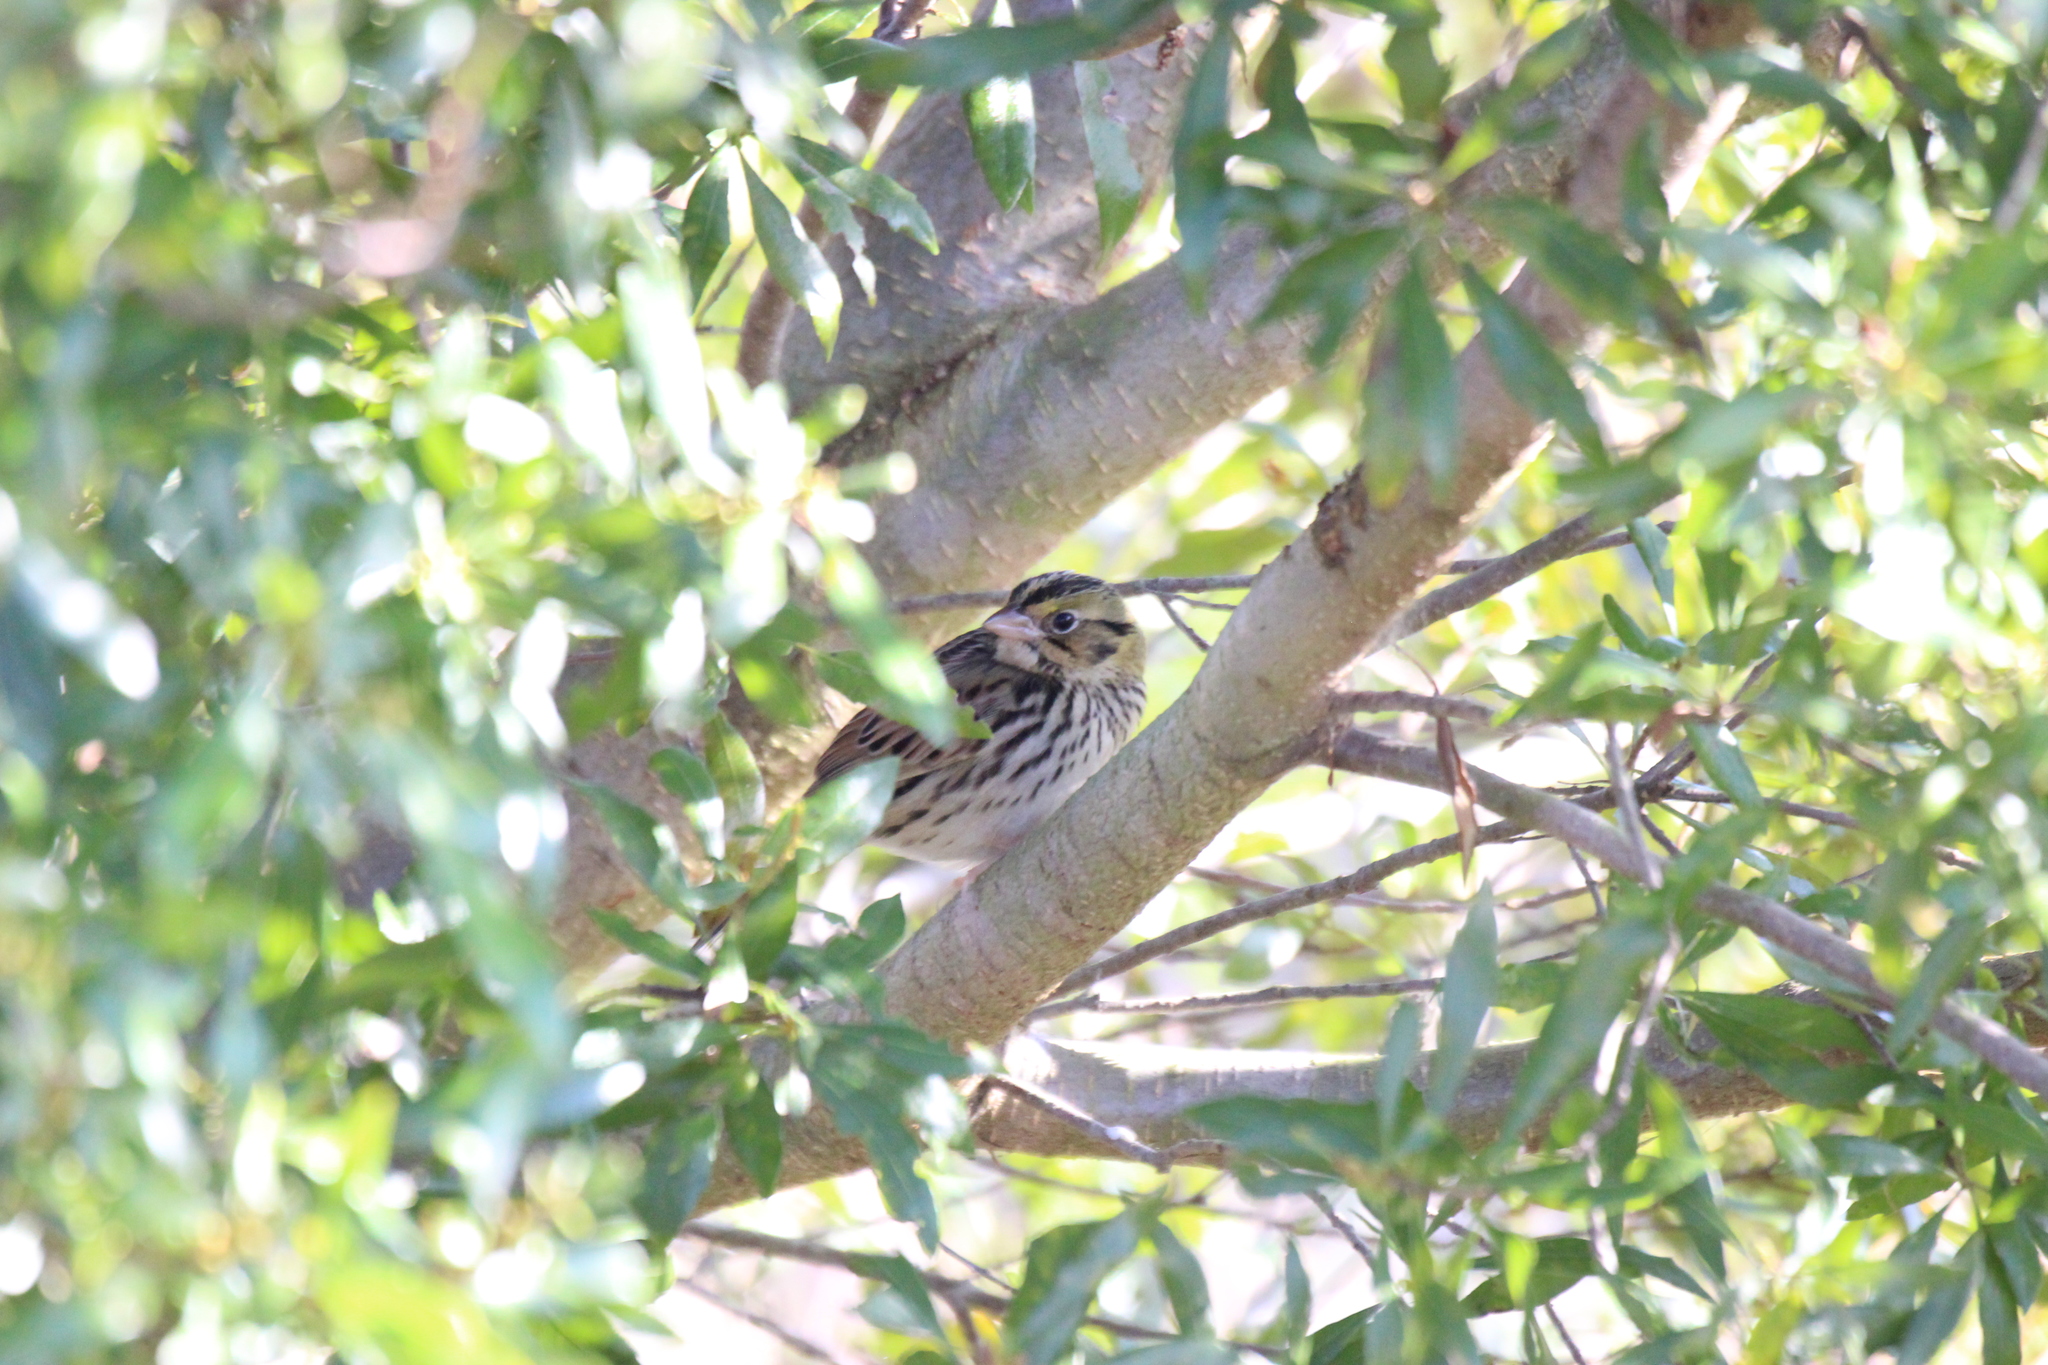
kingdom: Animalia
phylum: Chordata
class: Aves
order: Passeriformes
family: Passerellidae
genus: Centronyx
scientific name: Centronyx henslowii
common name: Henslow's sparrow
